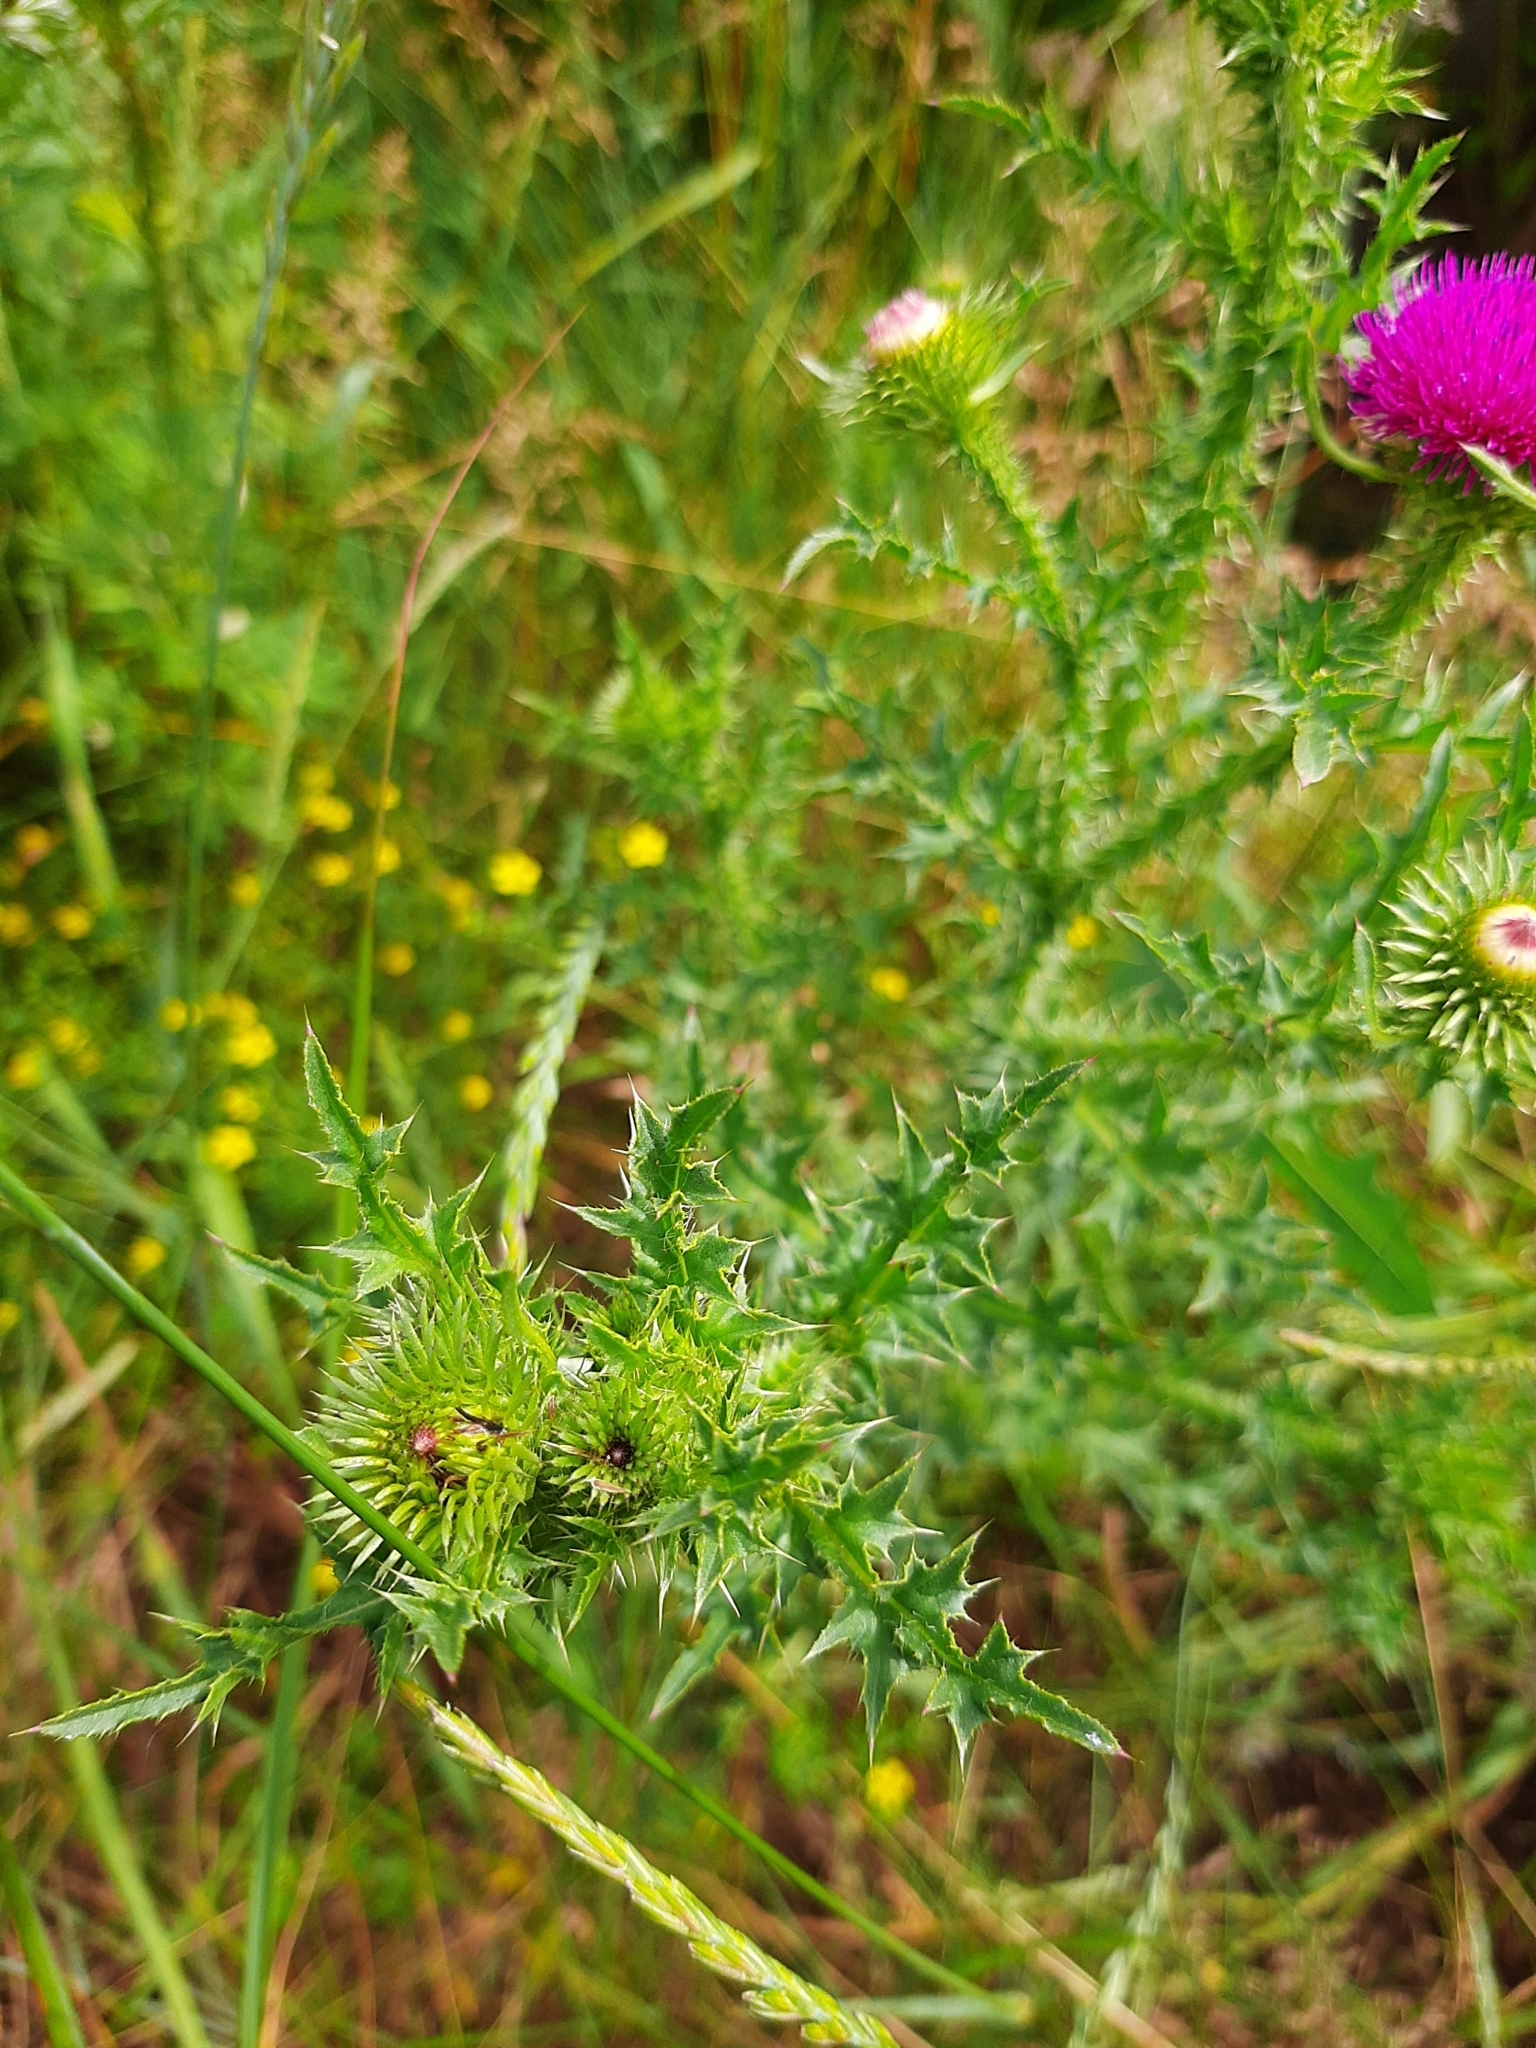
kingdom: Plantae
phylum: Tracheophyta
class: Magnoliopsida
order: Asterales
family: Asteraceae
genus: Carduus
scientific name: Carduus acanthoides
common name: Plumeless thistle
